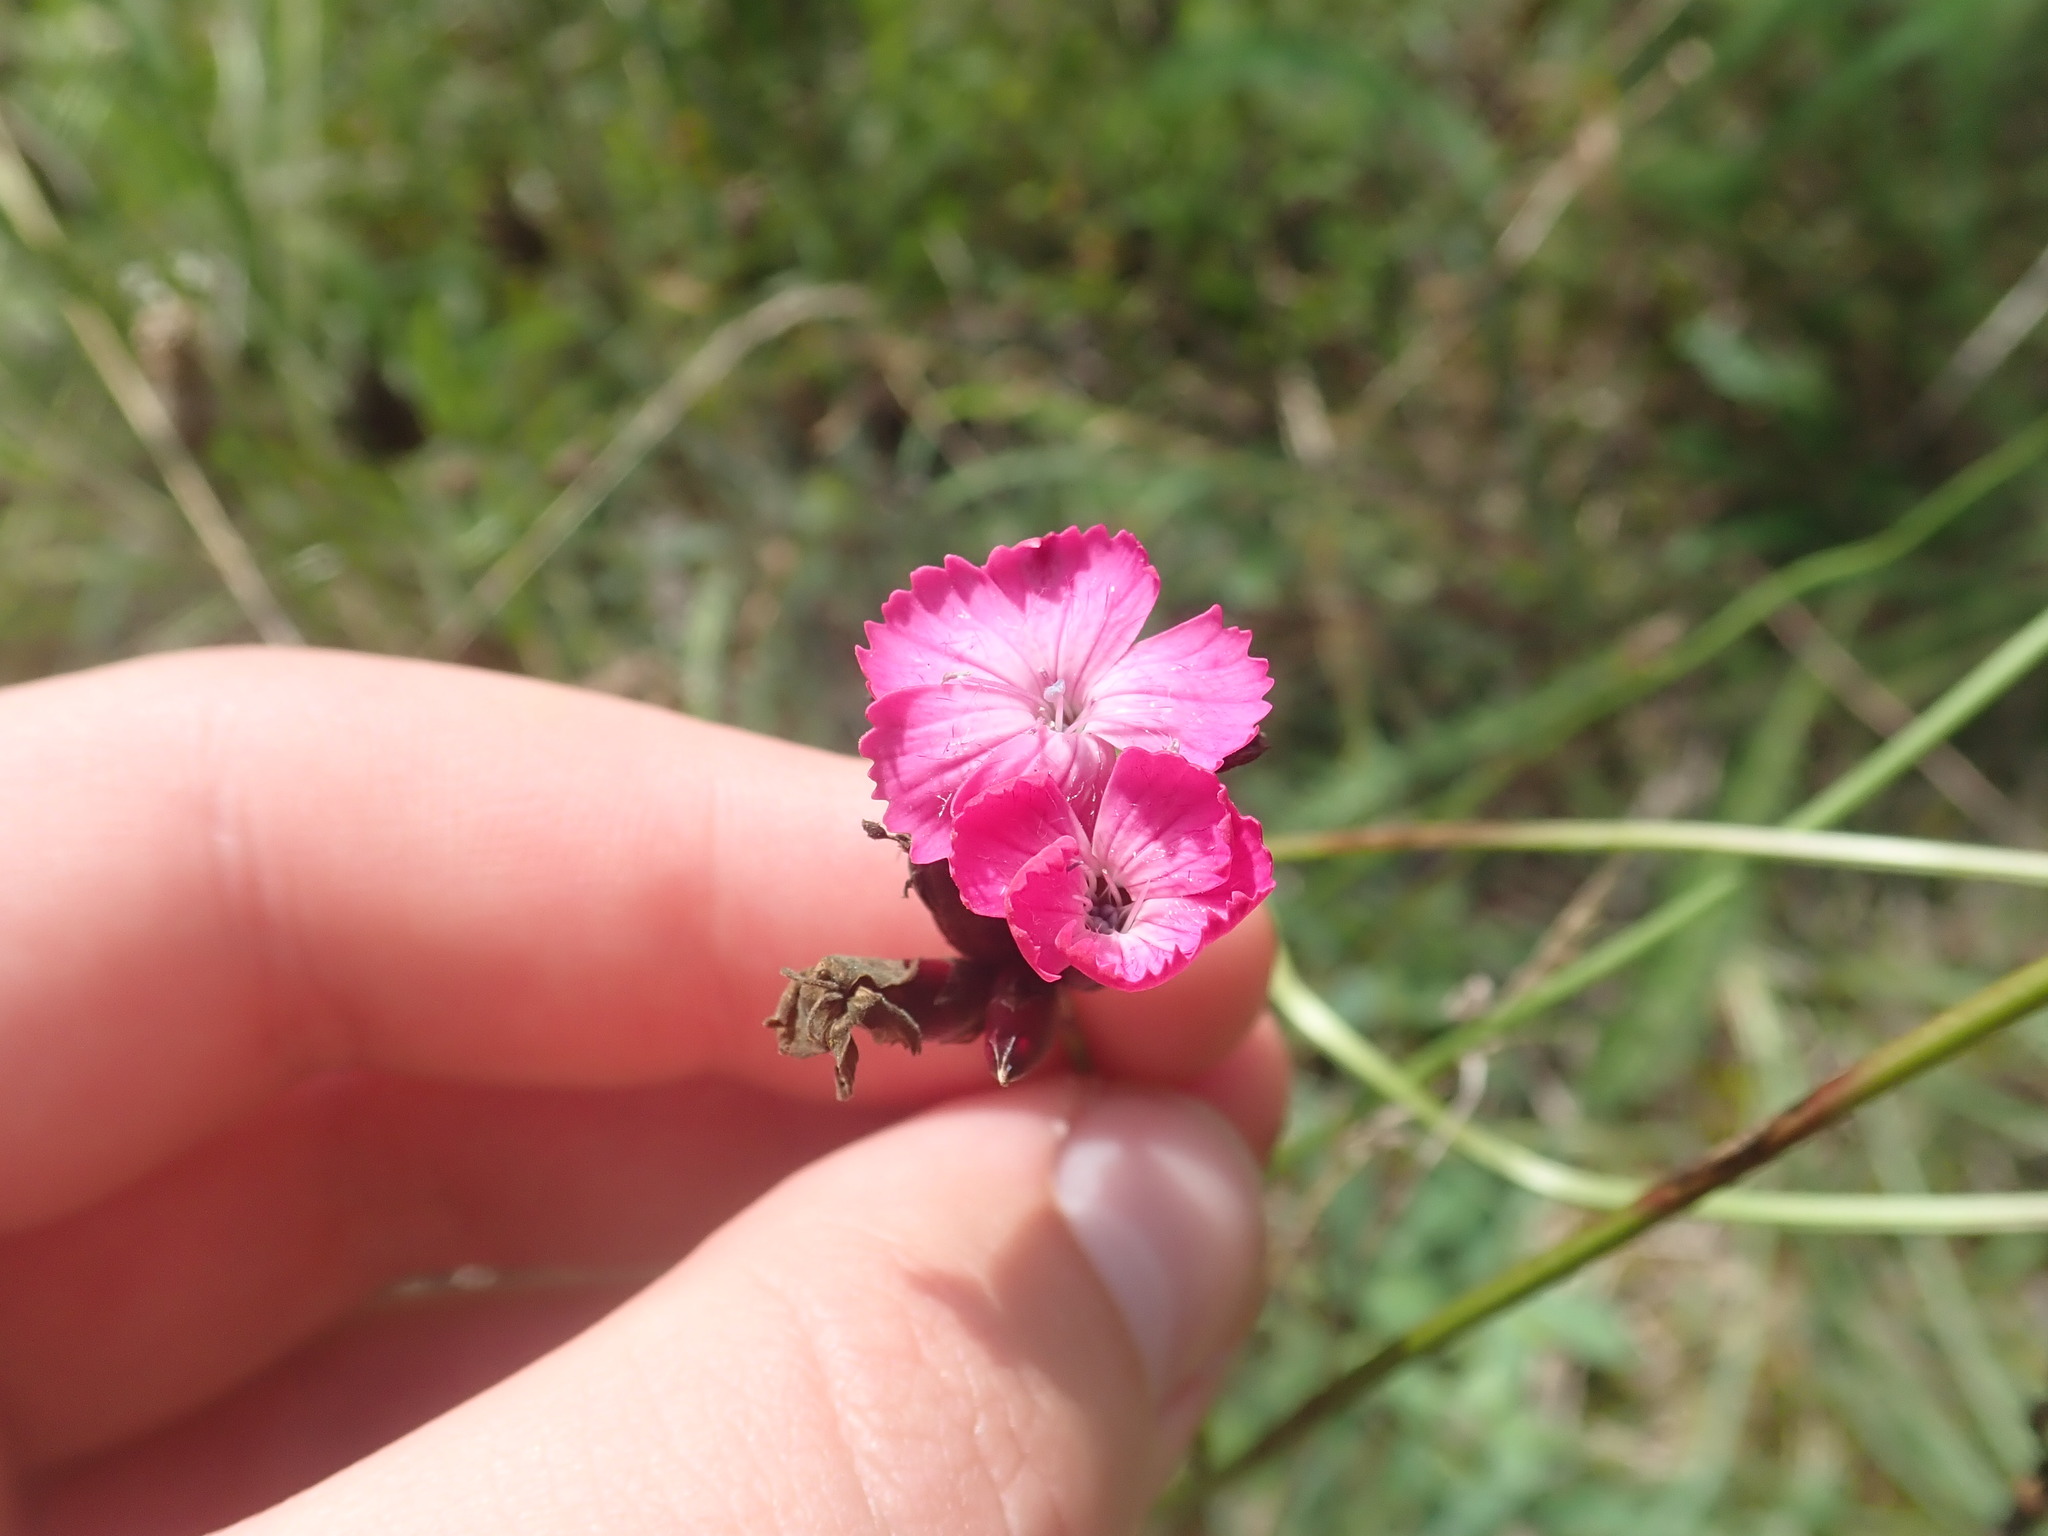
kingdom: Plantae
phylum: Tracheophyta
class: Magnoliopsida
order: Caryophyllales
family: Caryophyllaceae
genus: Dianthus
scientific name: Dianthus giganteus
